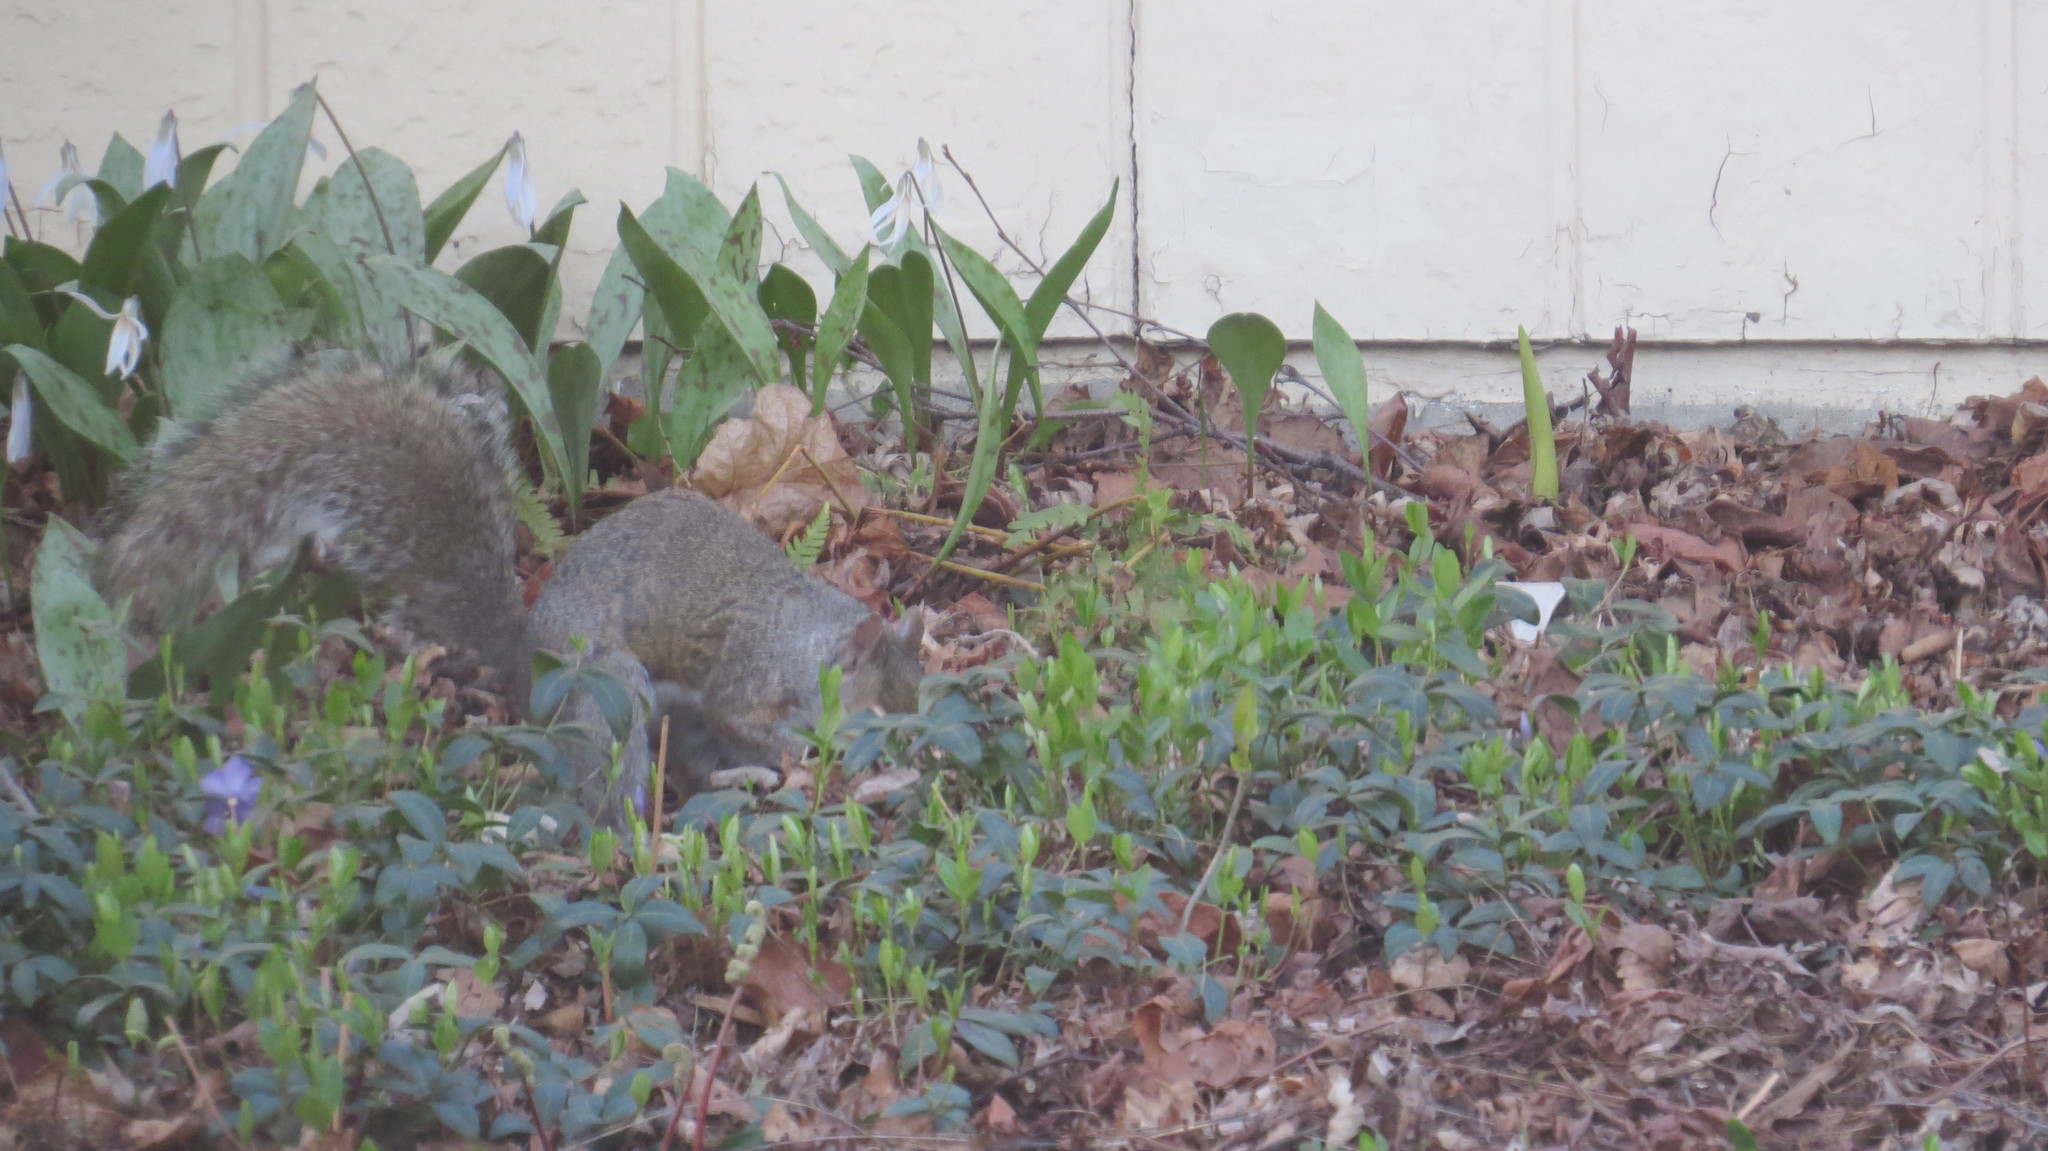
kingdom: Animalia
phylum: Chordata
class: Mammalia
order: Rodentia
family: Sciuridae
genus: Sciurus
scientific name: Sciurus carolinensis
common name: Eastern gray squirrel
